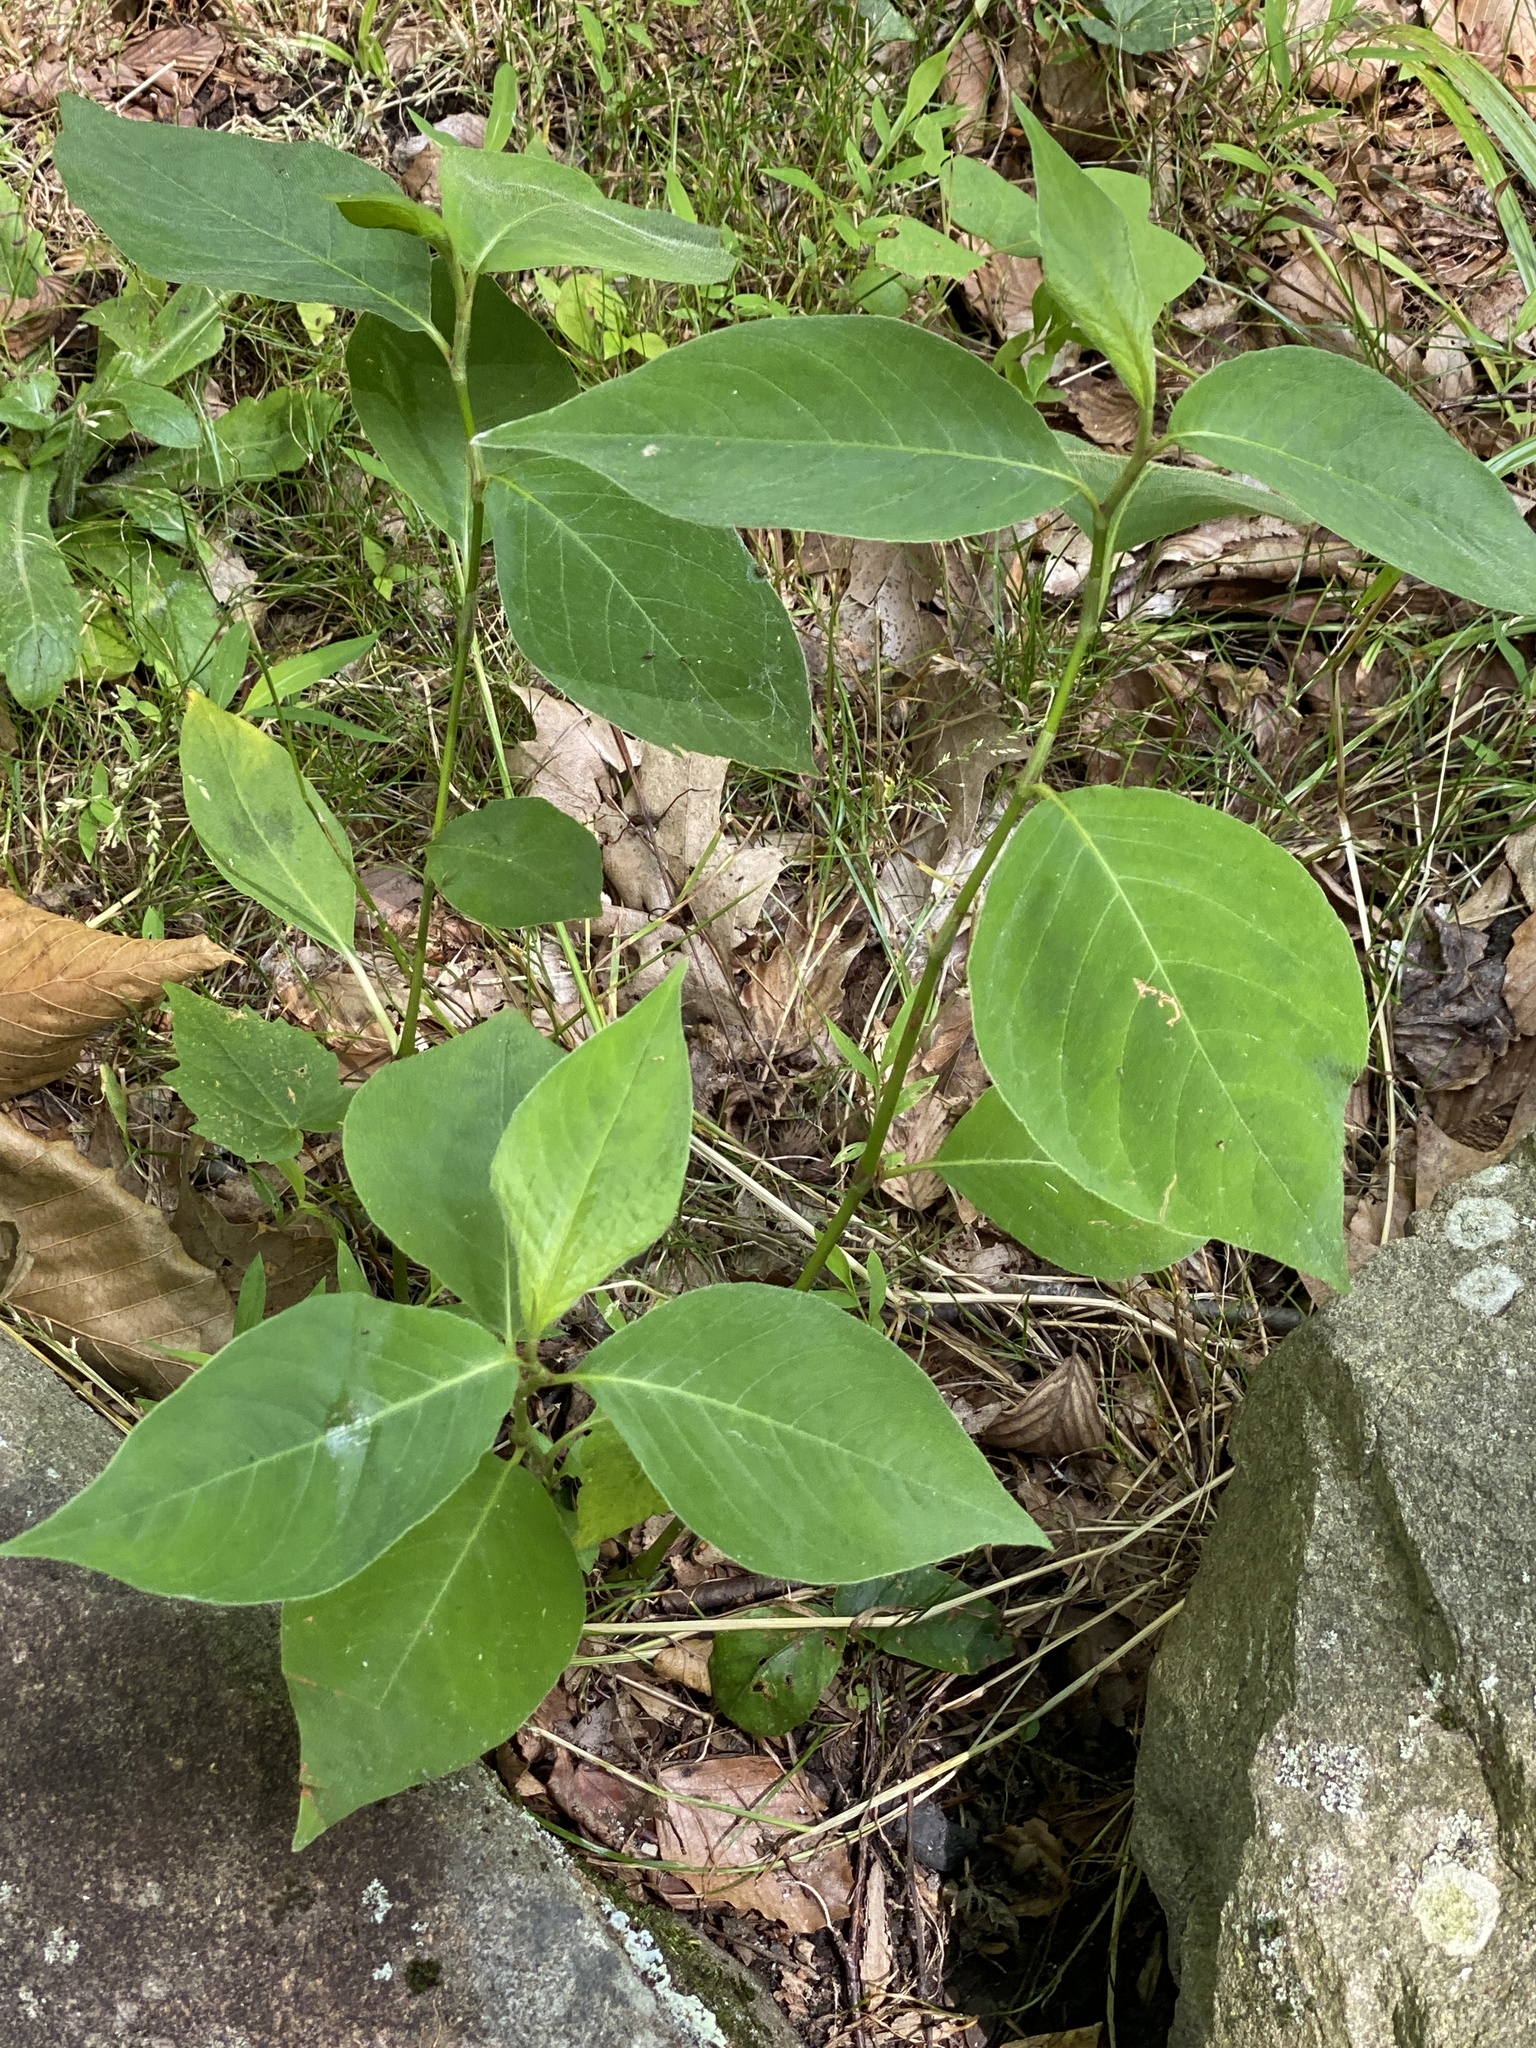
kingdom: Plantae
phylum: Tracheophyta
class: Magnoliopsida
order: Caryophyllales
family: Polygonaceae
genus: Persicaria
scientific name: Persicaria virginiana
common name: Jumpseed
